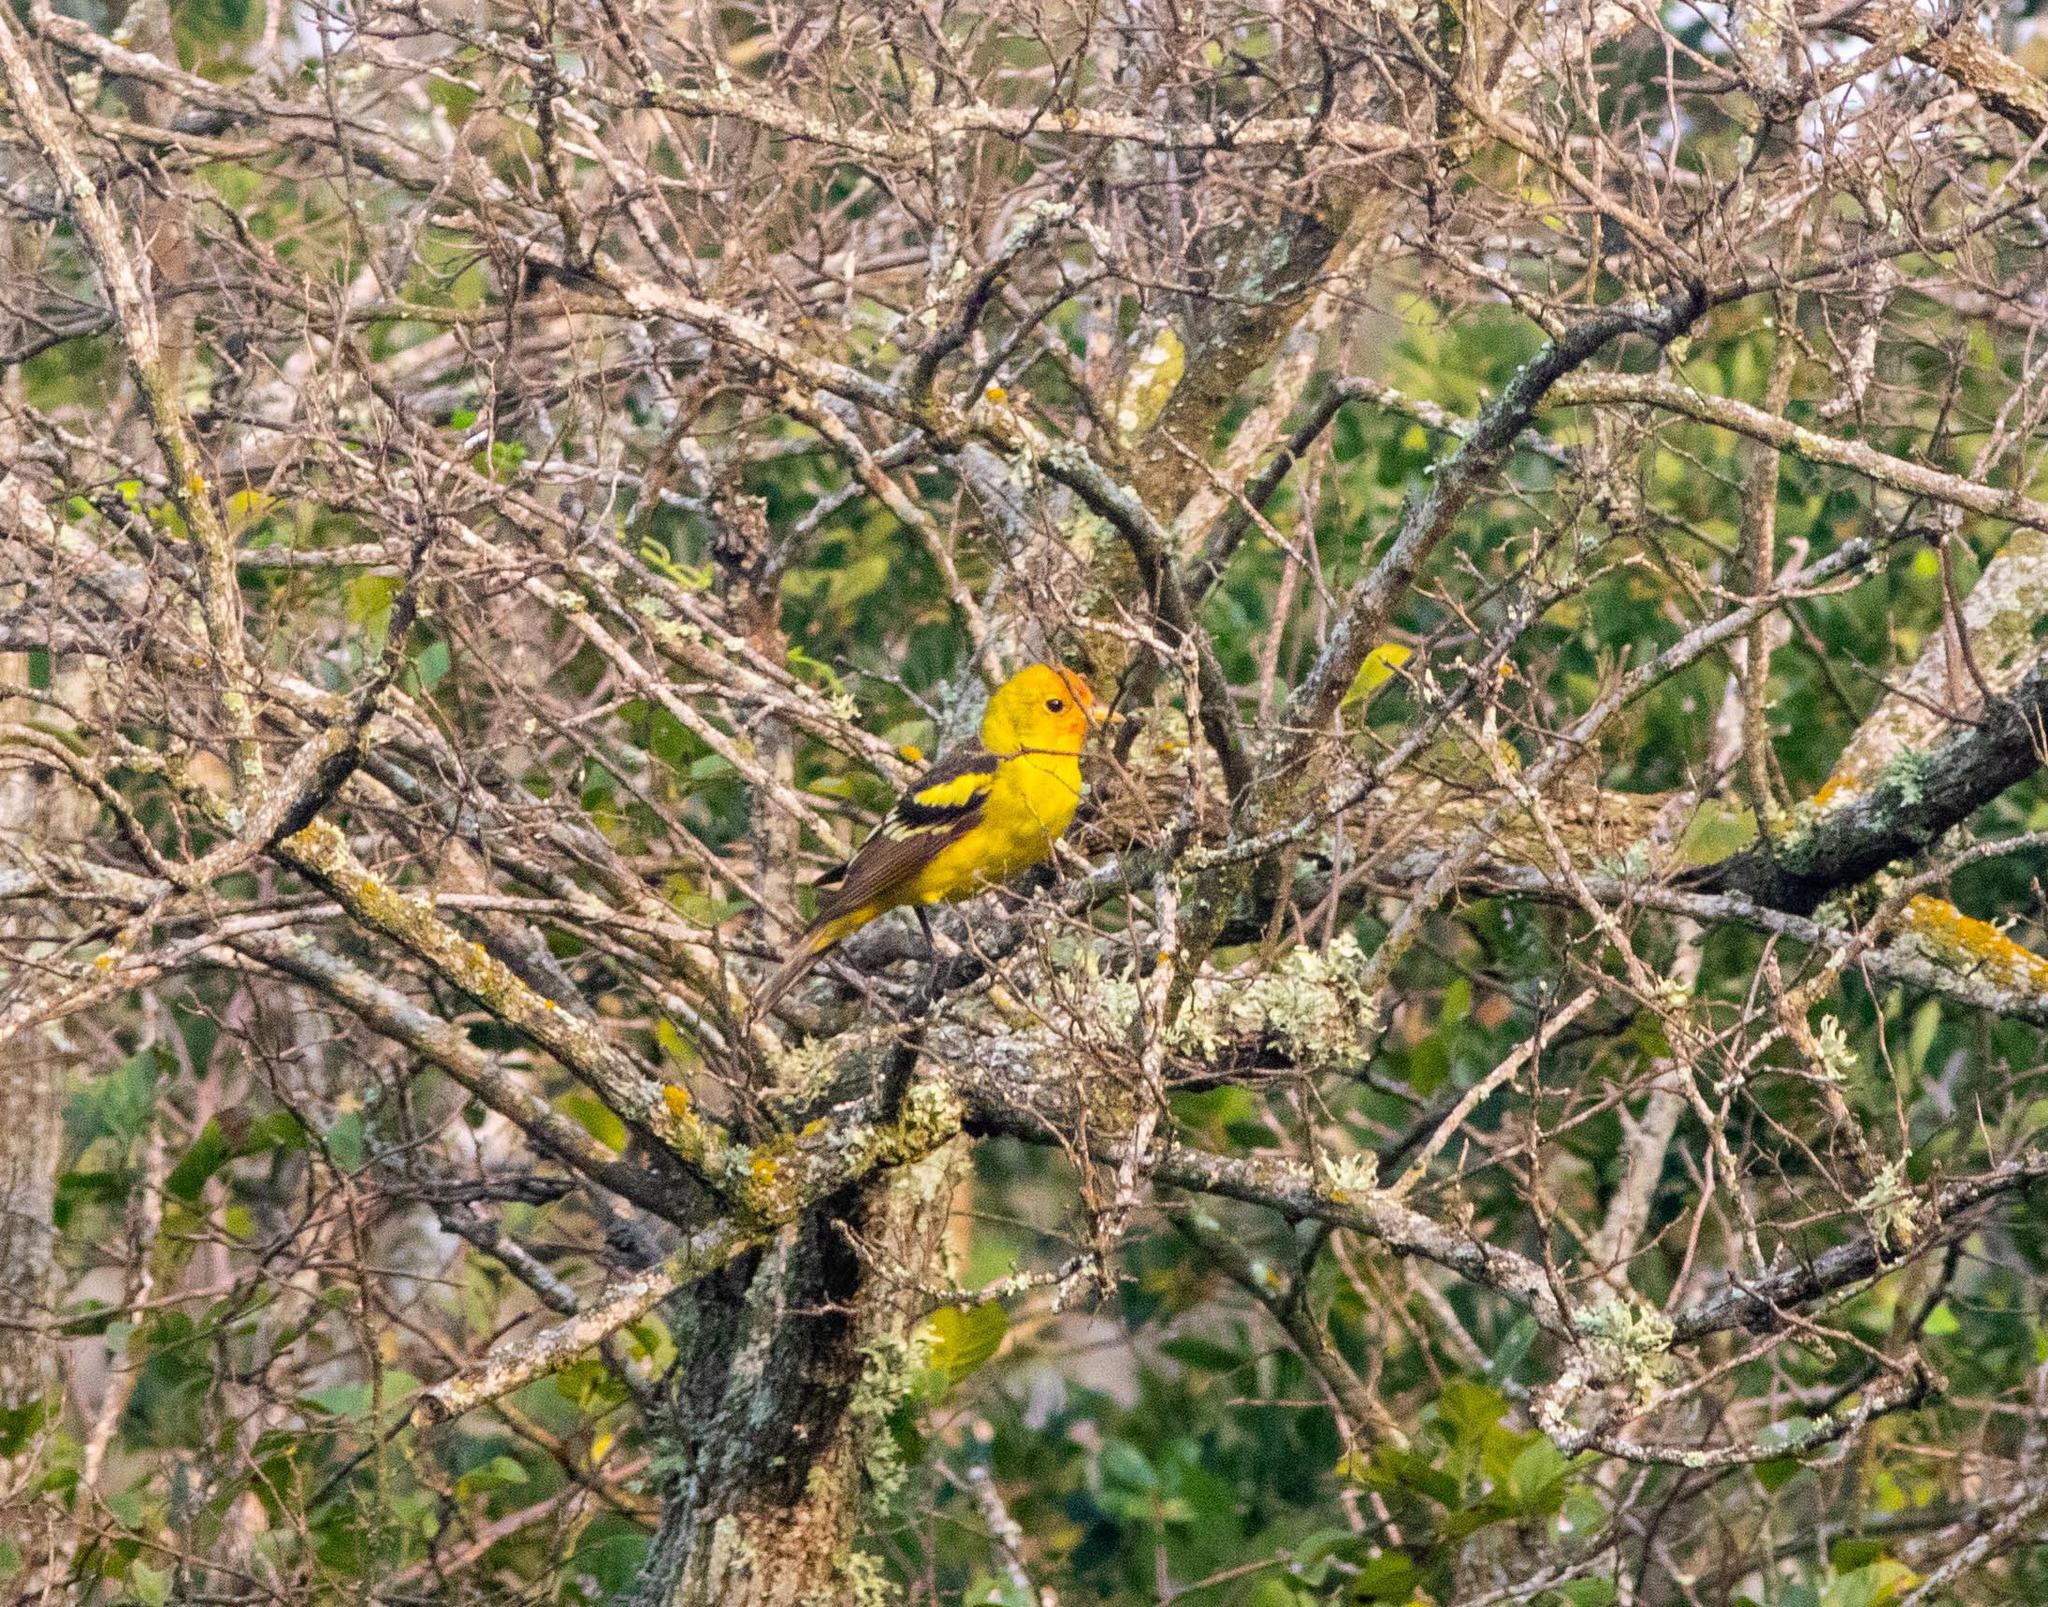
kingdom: Animalia
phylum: Chordata
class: Aves
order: Passeriformes
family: Cardinalidae
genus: Piranga
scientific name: Piranga ludoviciana
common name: Western tanager
